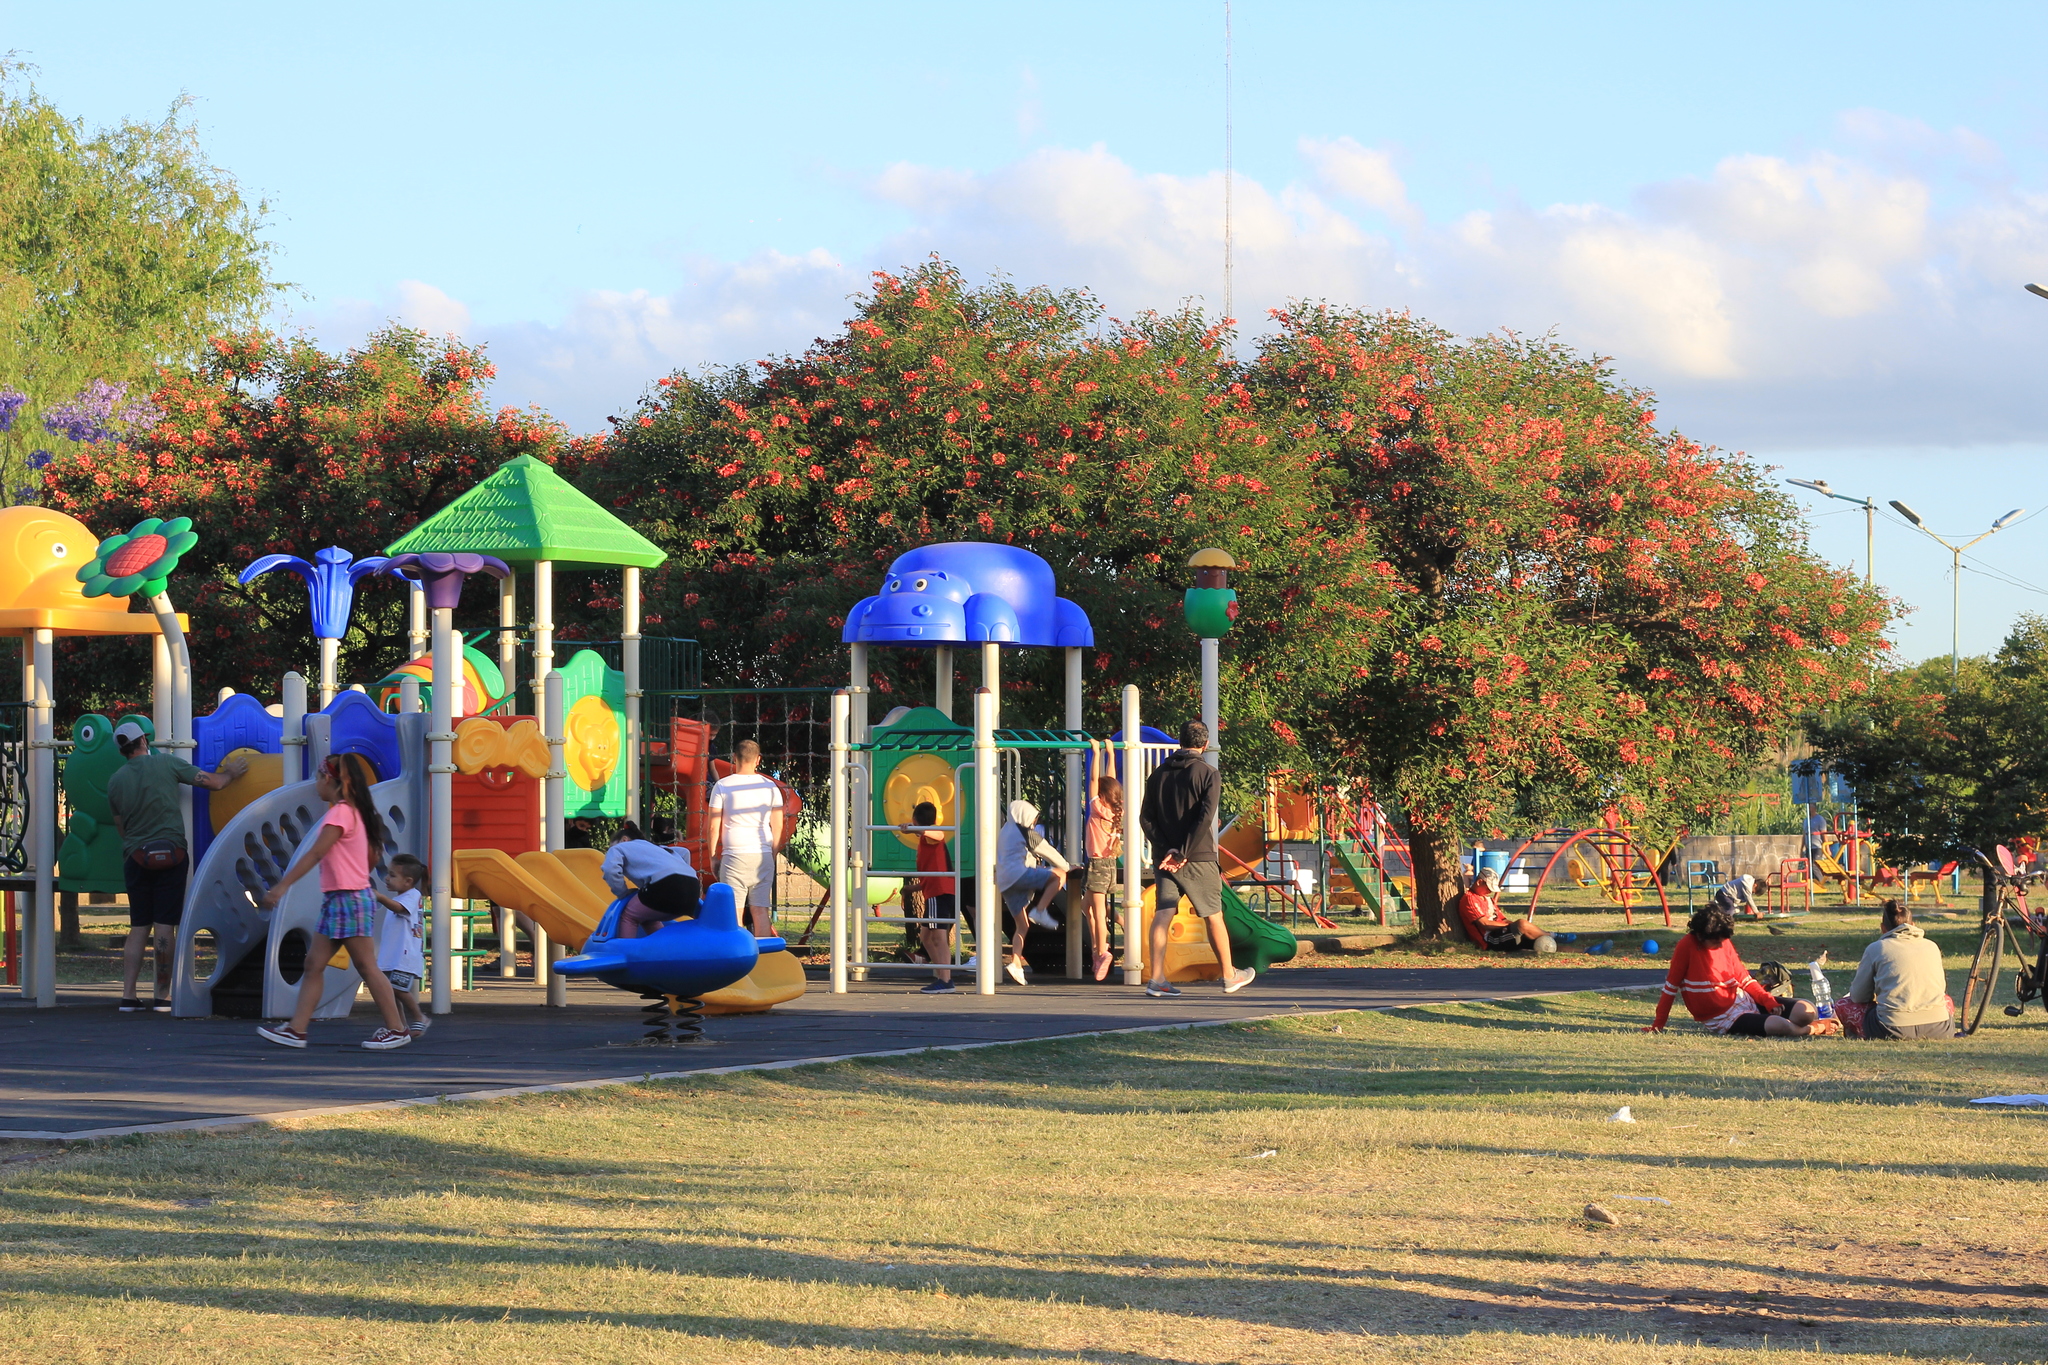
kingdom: Plantae
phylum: Tracheophyta
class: Magnoliopsida
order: Fabales
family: Fabaceae
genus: Erythrina
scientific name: Erythrina crista-galli
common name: Cockspur coral tree
